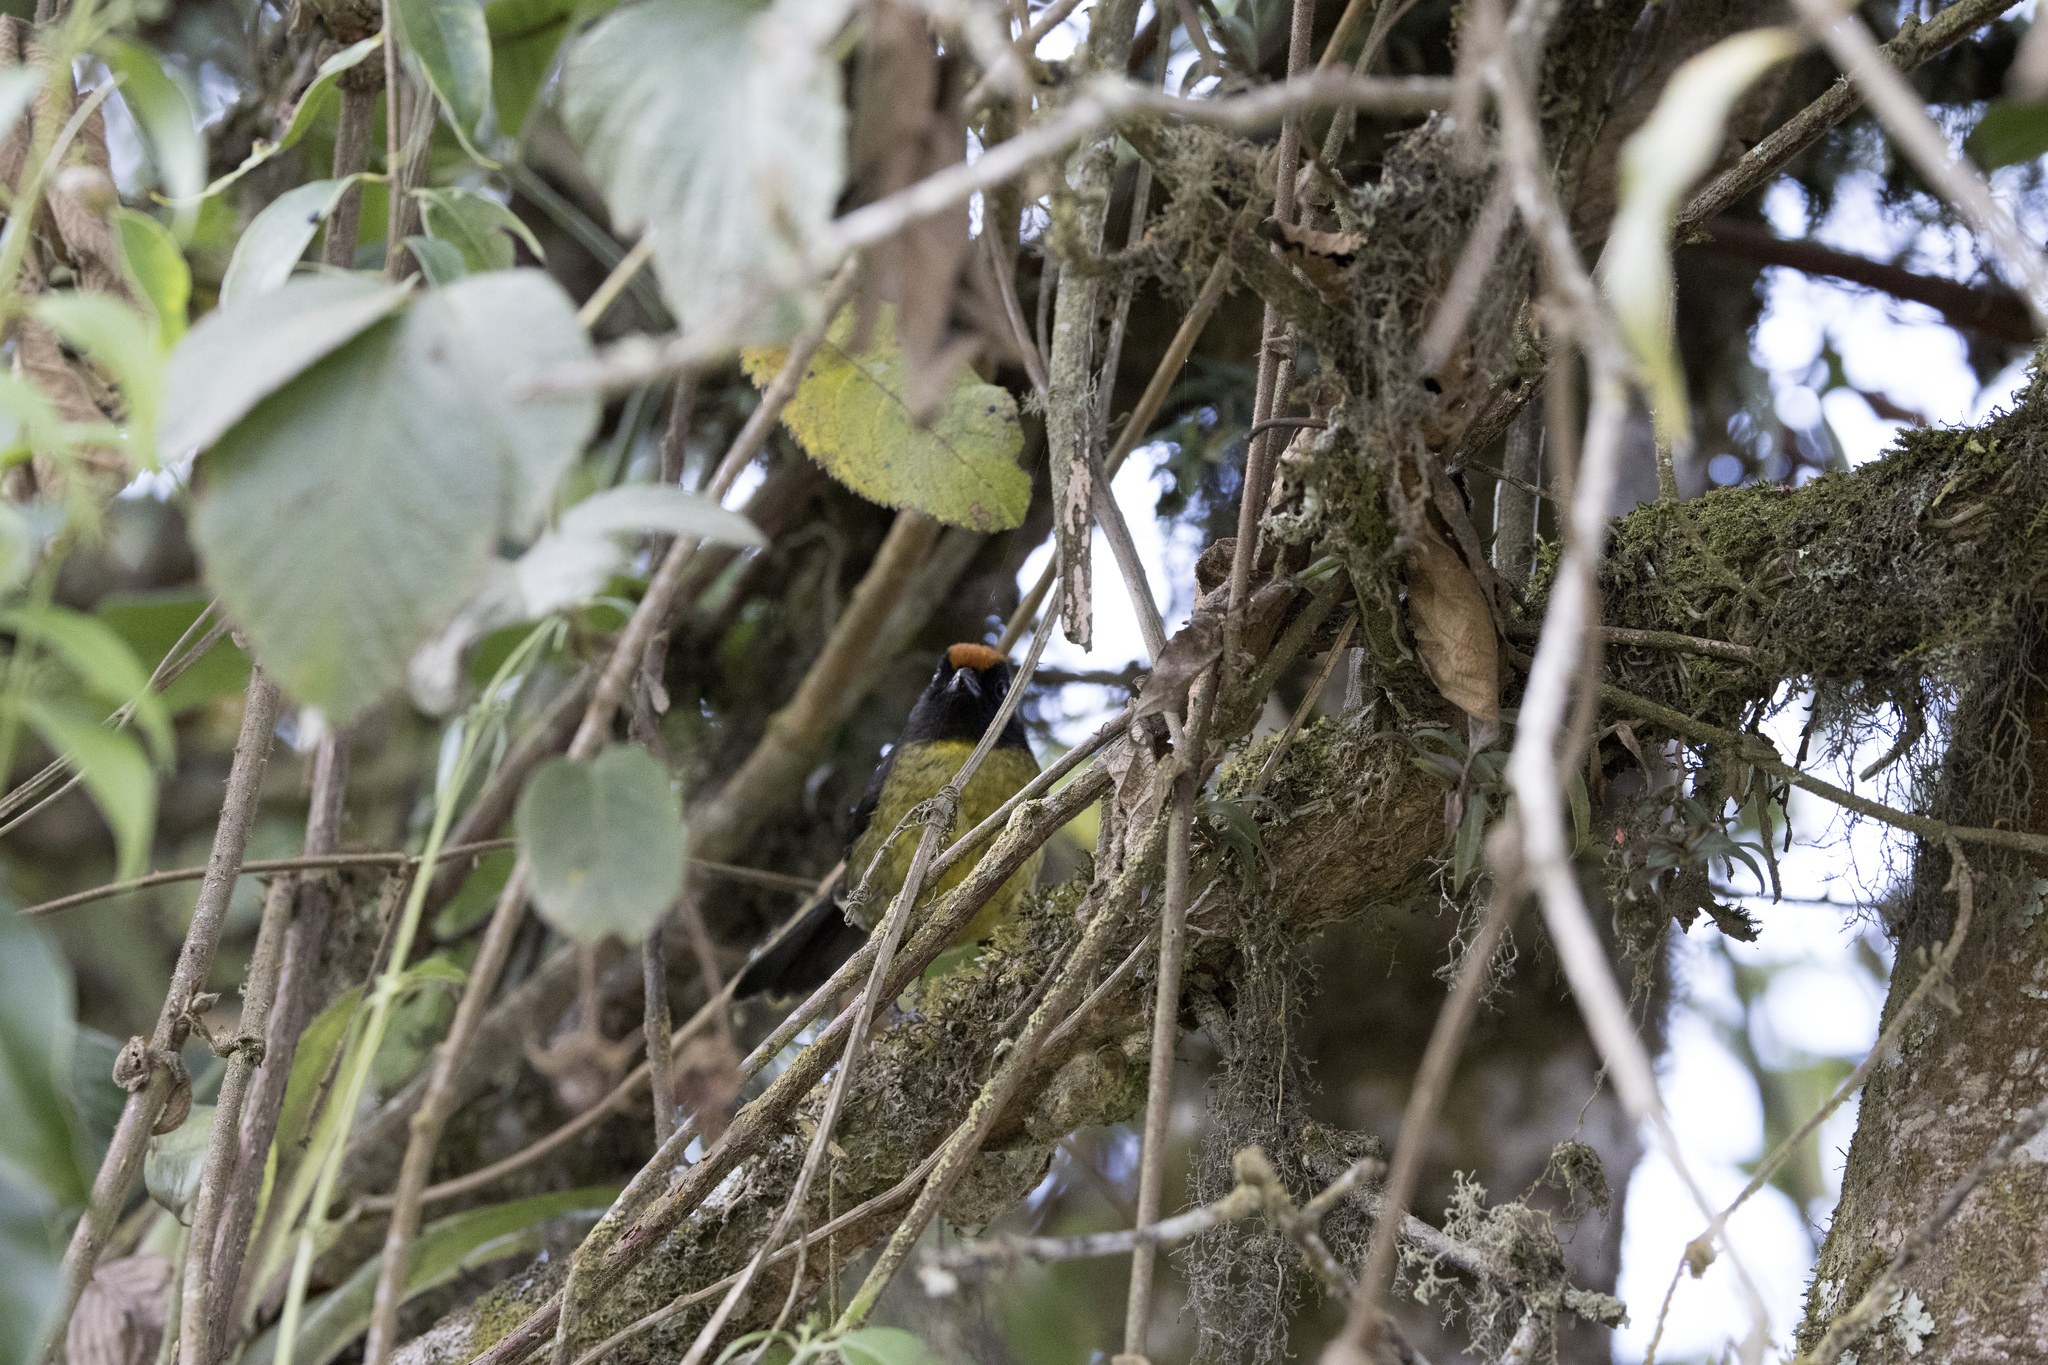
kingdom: Animalia
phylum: Chordata
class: Aves
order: Passeriformes
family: Passerellidae
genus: Atlapetes
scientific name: Atlapetes melanolaemus
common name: Grey-eared brush finch
